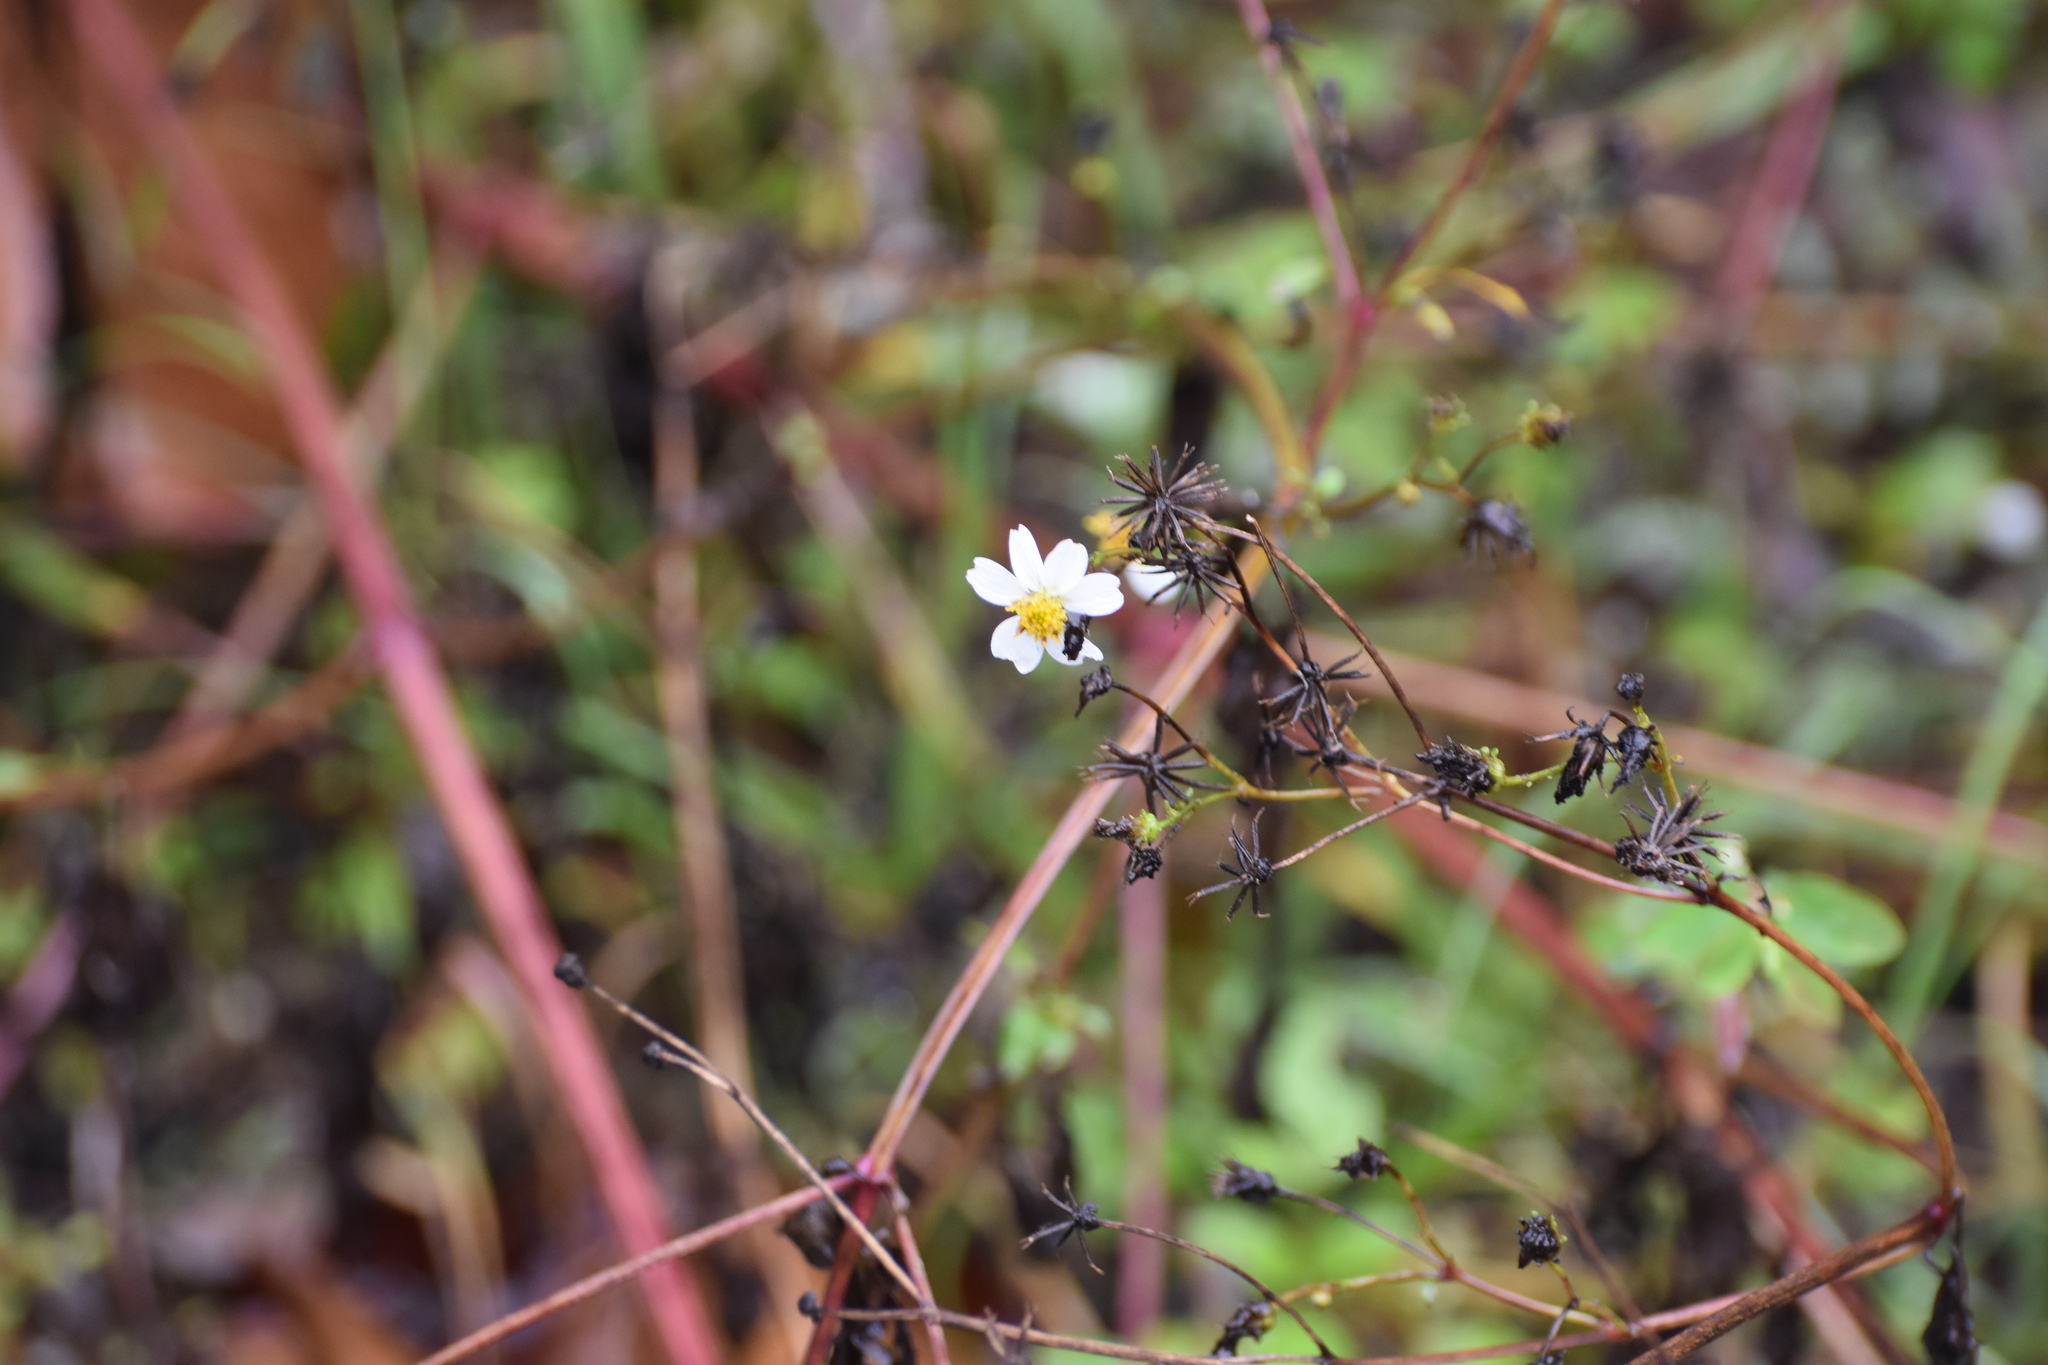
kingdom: Plantae
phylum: Tracheophyta
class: Magnoliopsida
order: Asterales
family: Asteraceae
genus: Bidens
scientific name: Bidens alba
